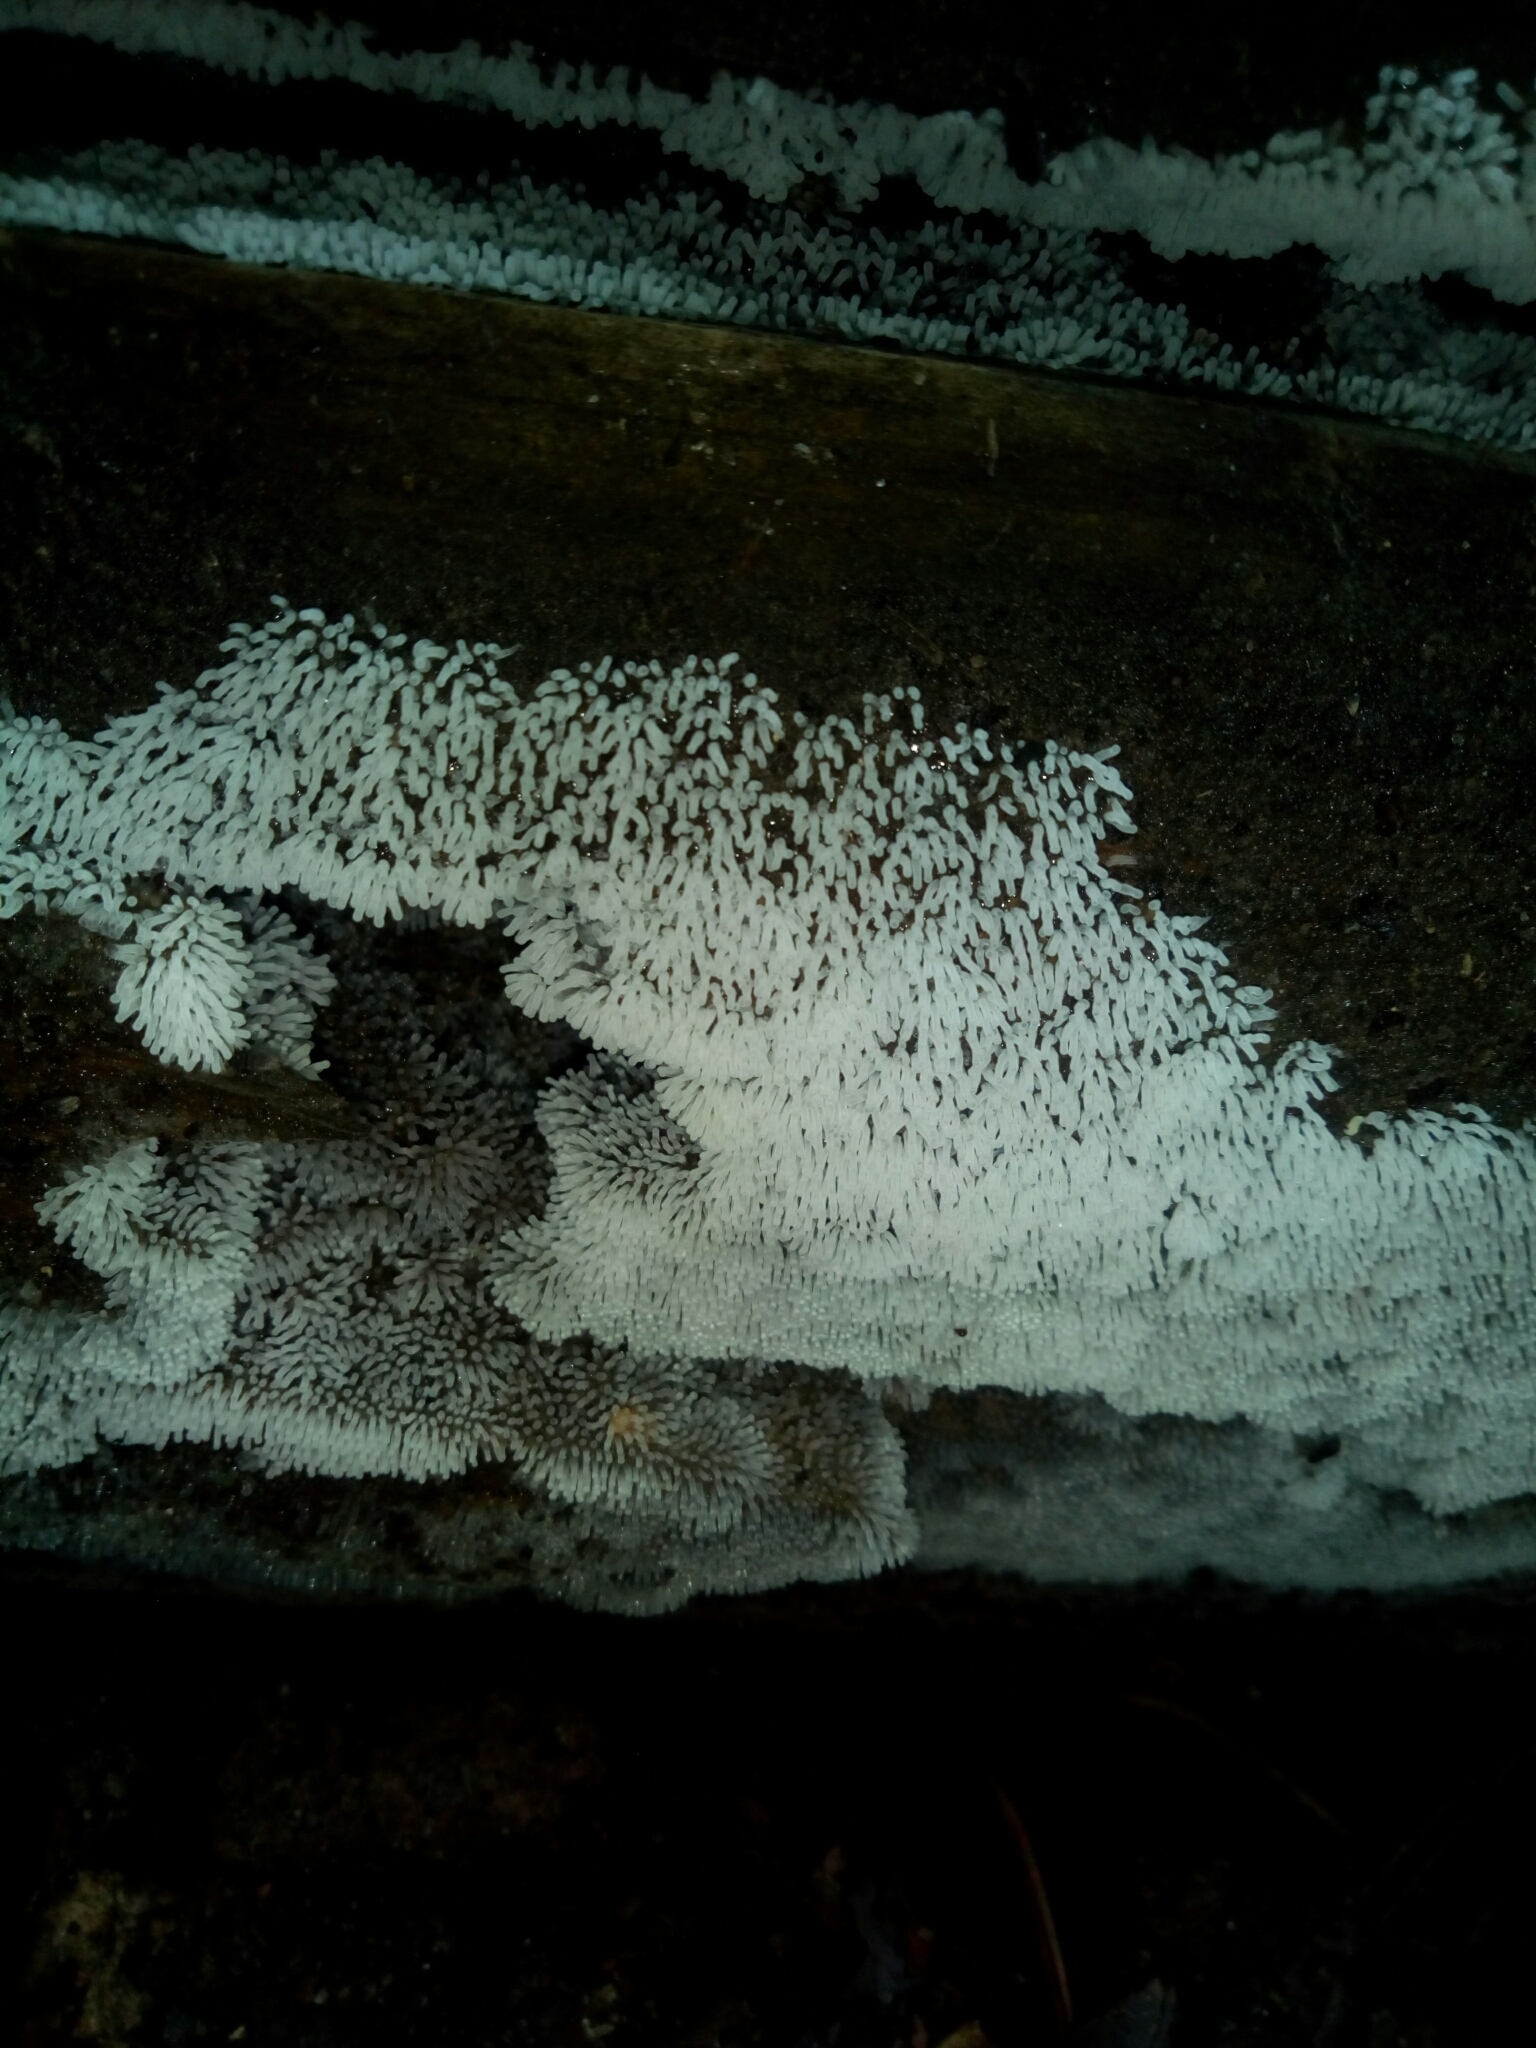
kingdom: Protozoa
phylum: Mycetozoa
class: Protosteliomycetes
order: Ceratiomyxales
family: Ceratiomyxaceae
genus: Ceratiomyxa
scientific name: Ceratiomyxa fruticulosa
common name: Honeycomb coral slime mold
